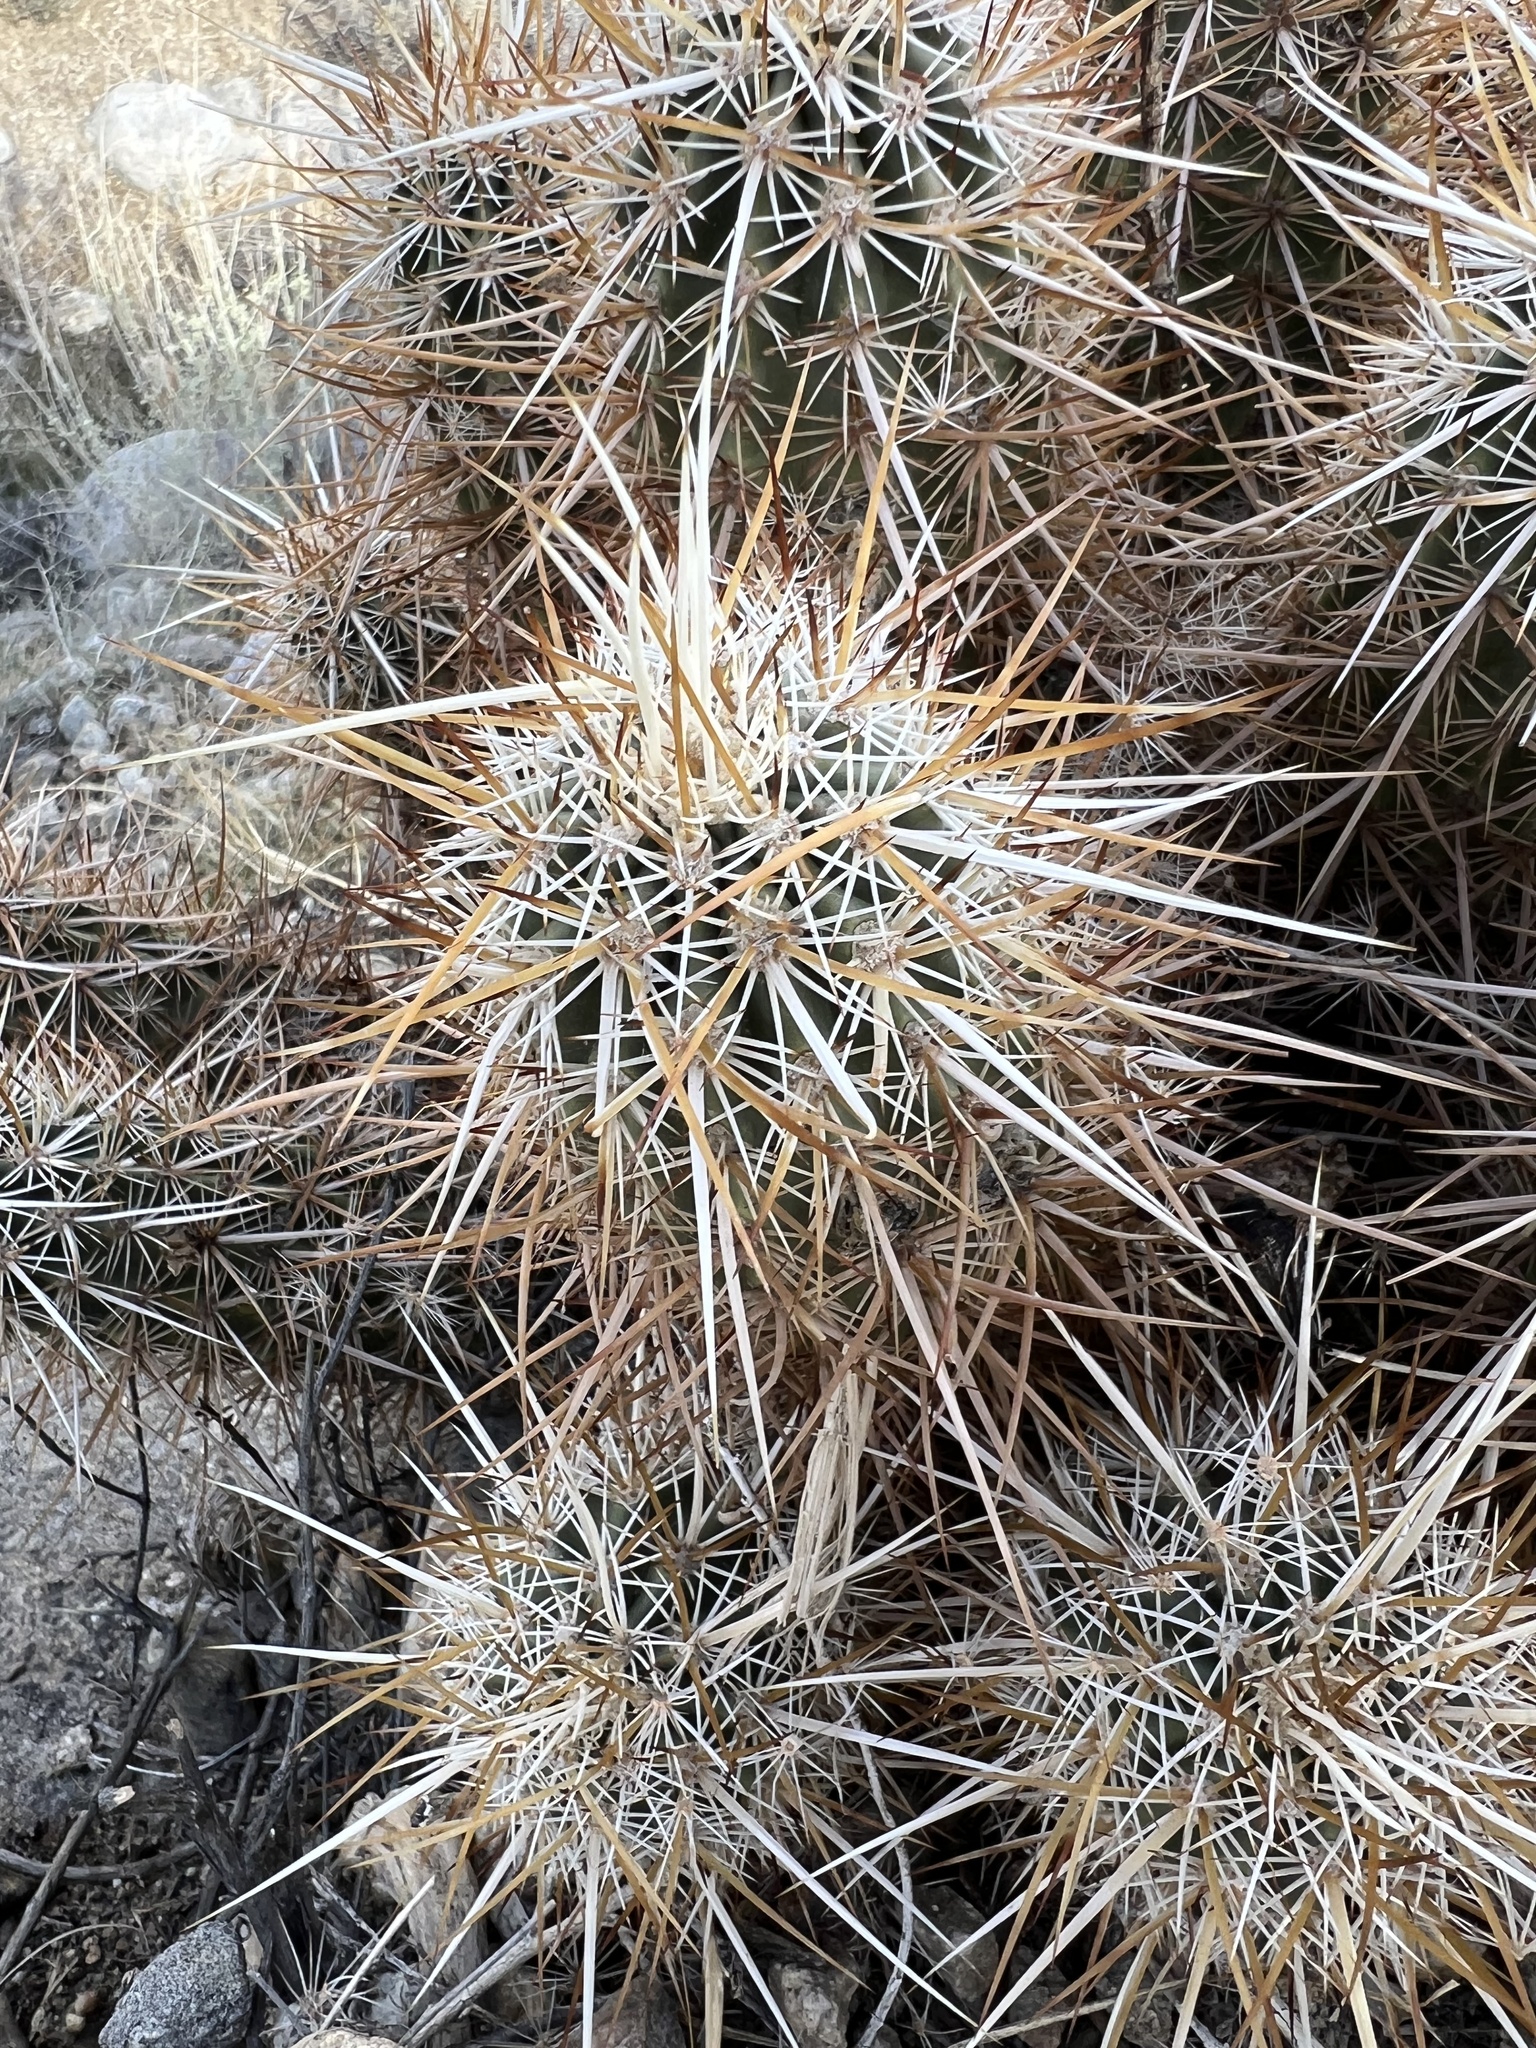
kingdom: Plantae
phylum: Tracheophyta
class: Magnoliopsida
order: Caryophyllales
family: Cactaceae
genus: Echinocereus
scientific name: Echinocereus engelmannii
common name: Engelmann's hedgehog cactus
